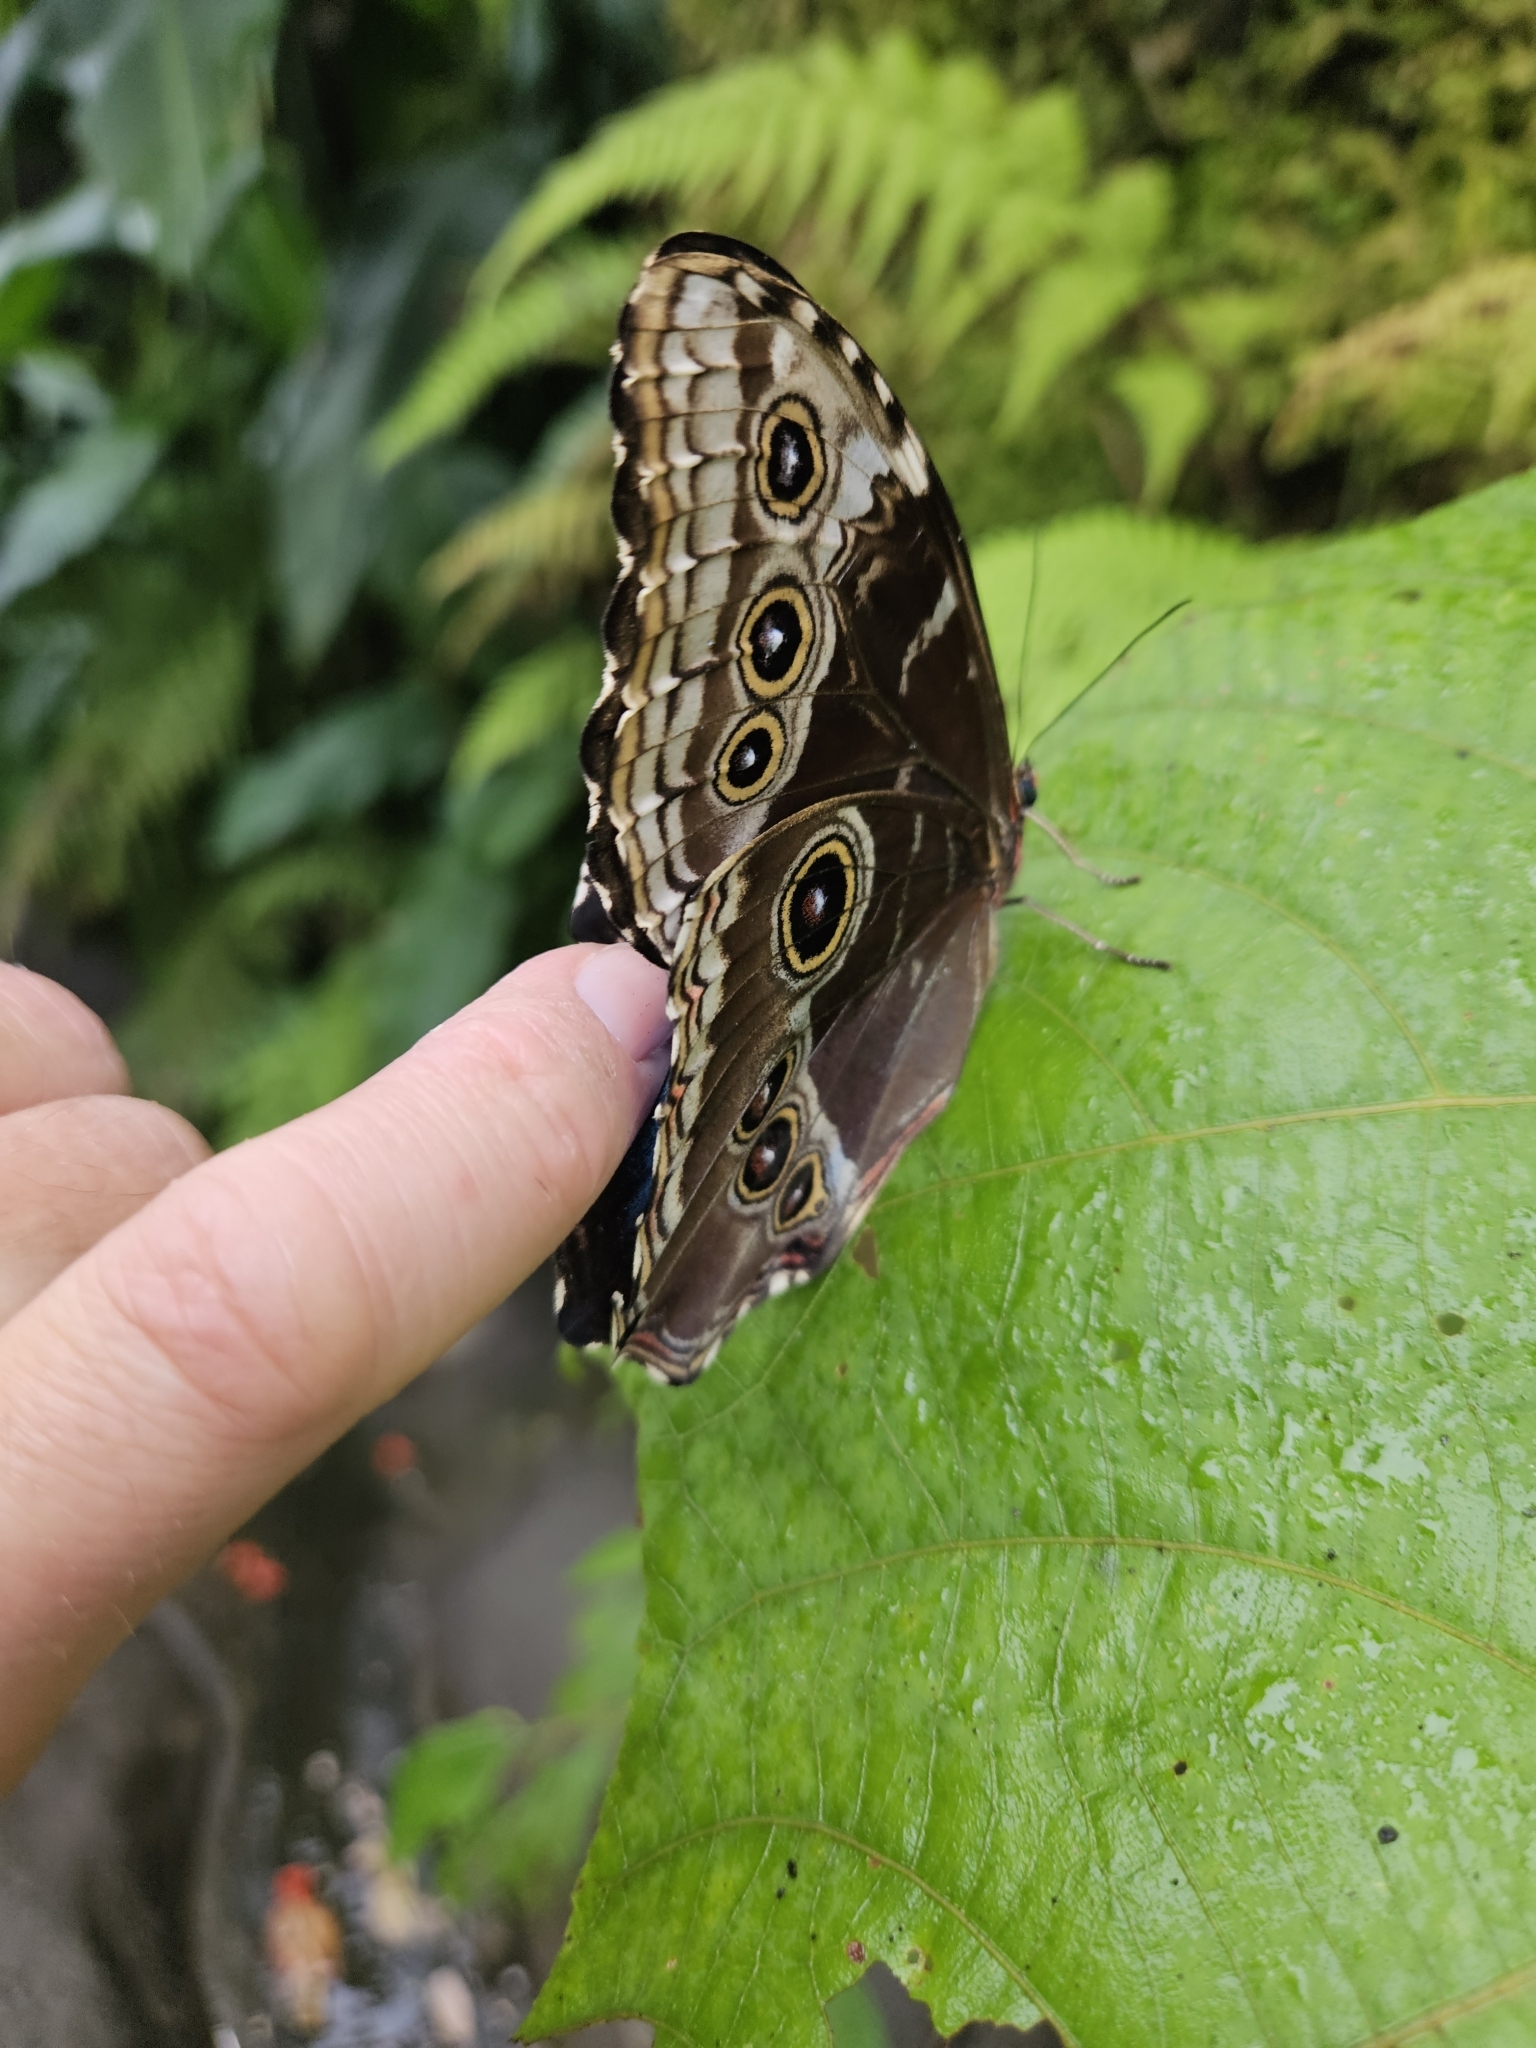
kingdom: Animalia
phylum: Arthropoda
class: Insecta
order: Lepidoptera
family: Nymphalidae
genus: Morpho
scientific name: Morpho helenor
